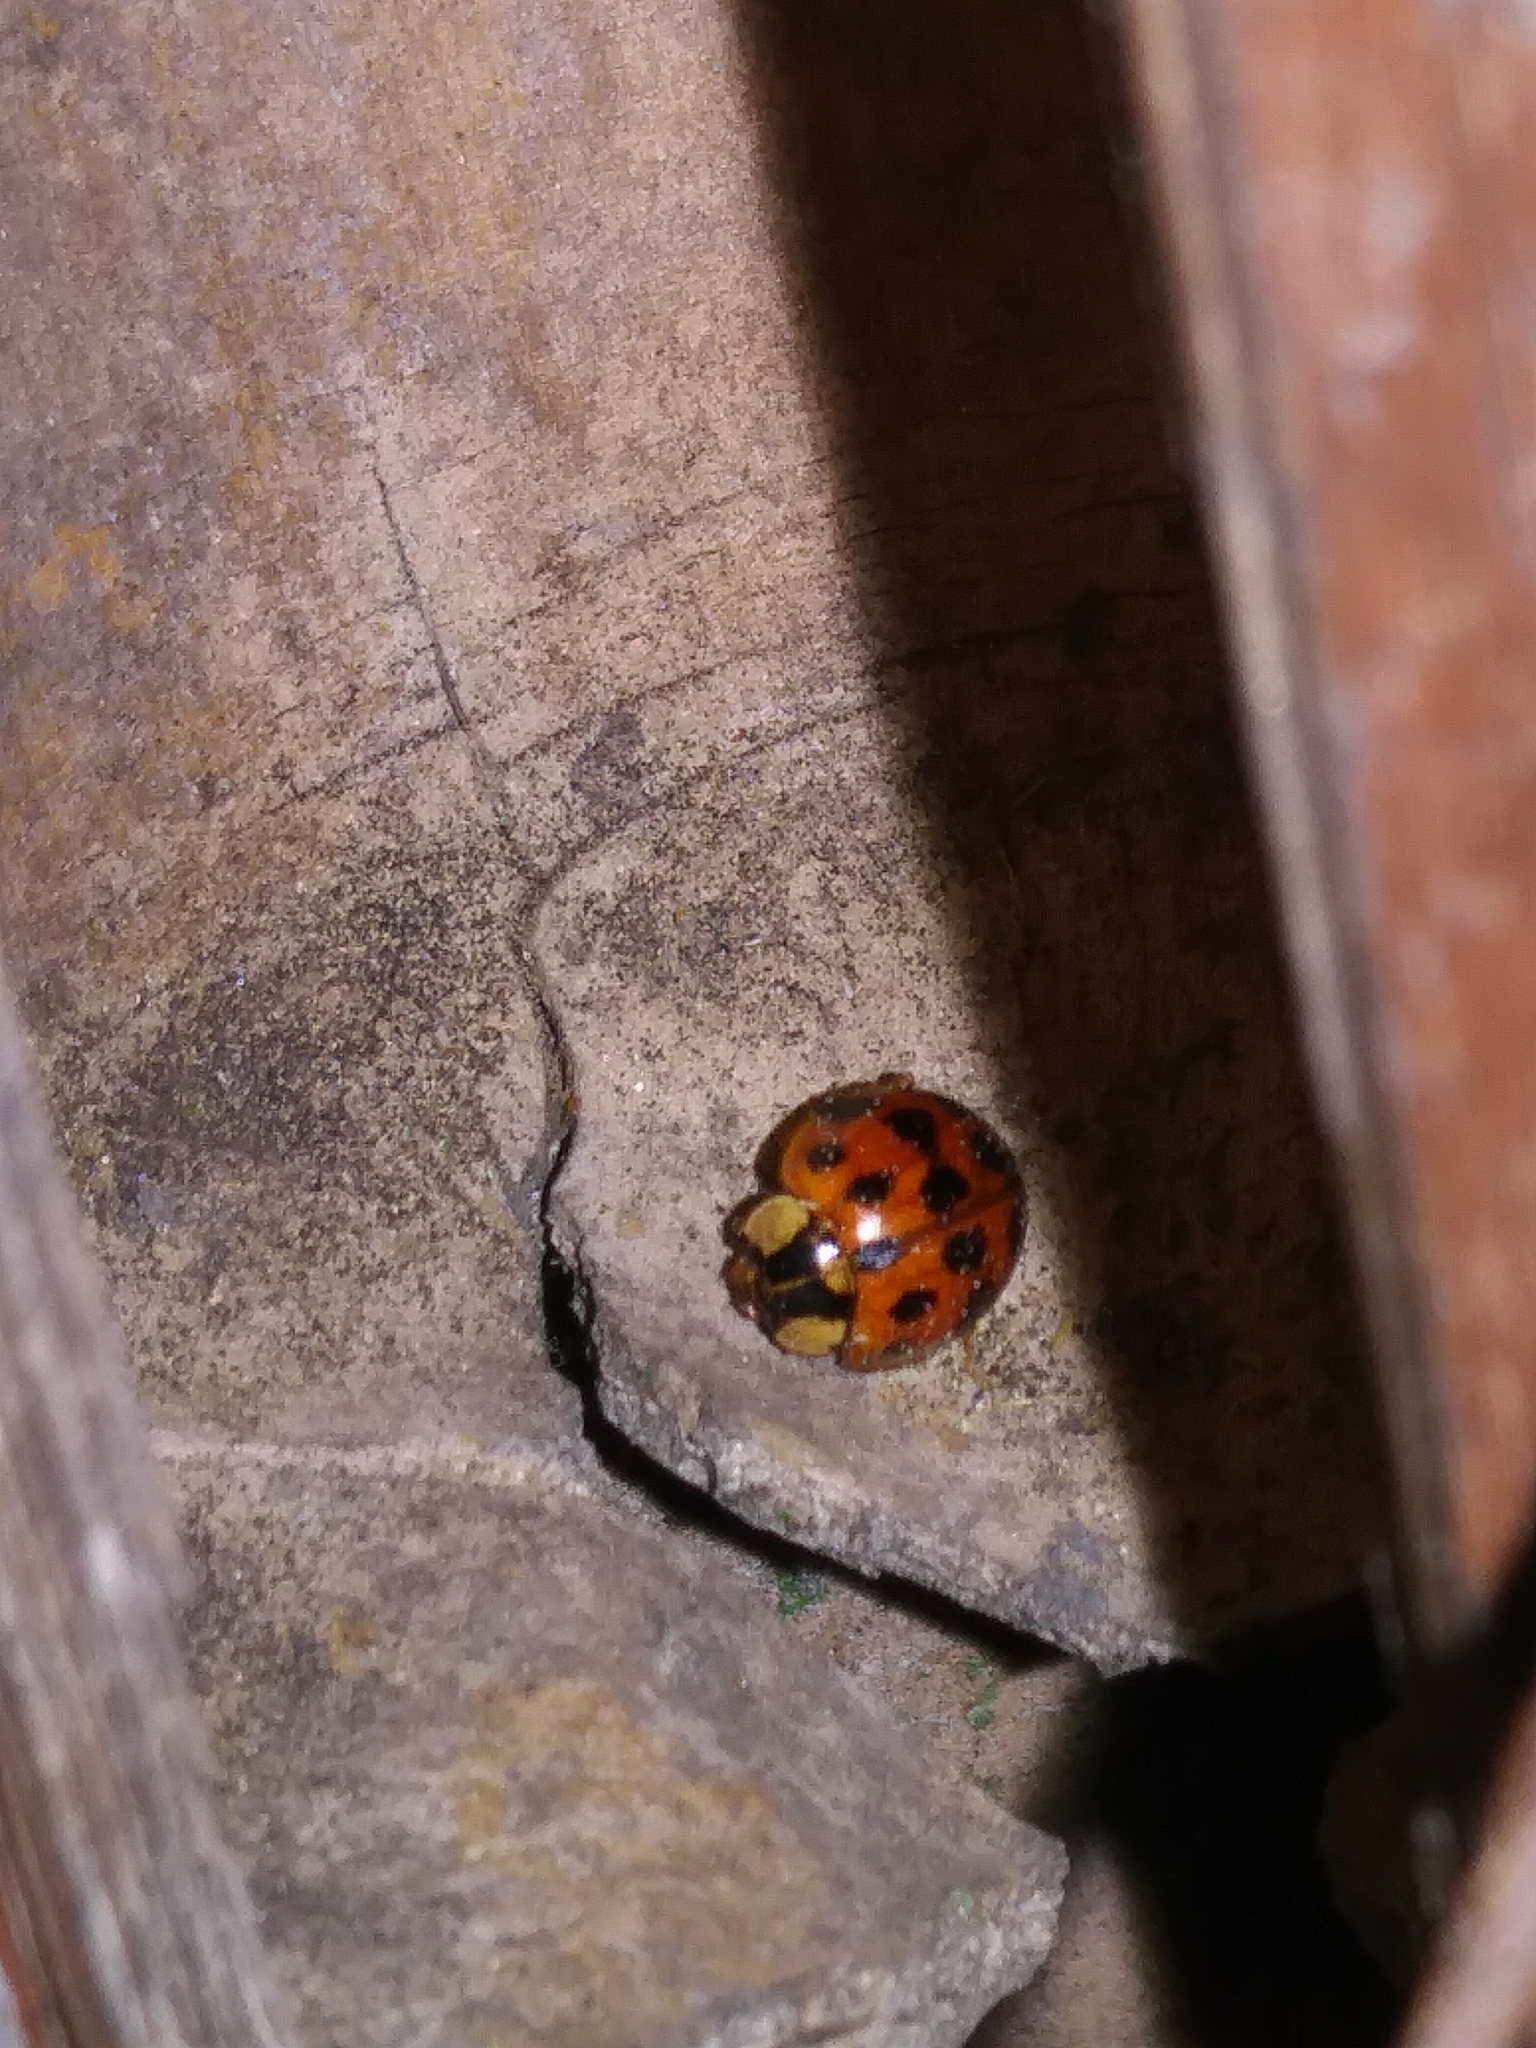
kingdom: Animalia
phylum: Arthropoda
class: Insecta
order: Coleoptera
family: Coccinellidae
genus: Harmonia
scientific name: Harmonia axyridis
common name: Harlequin ladybird
